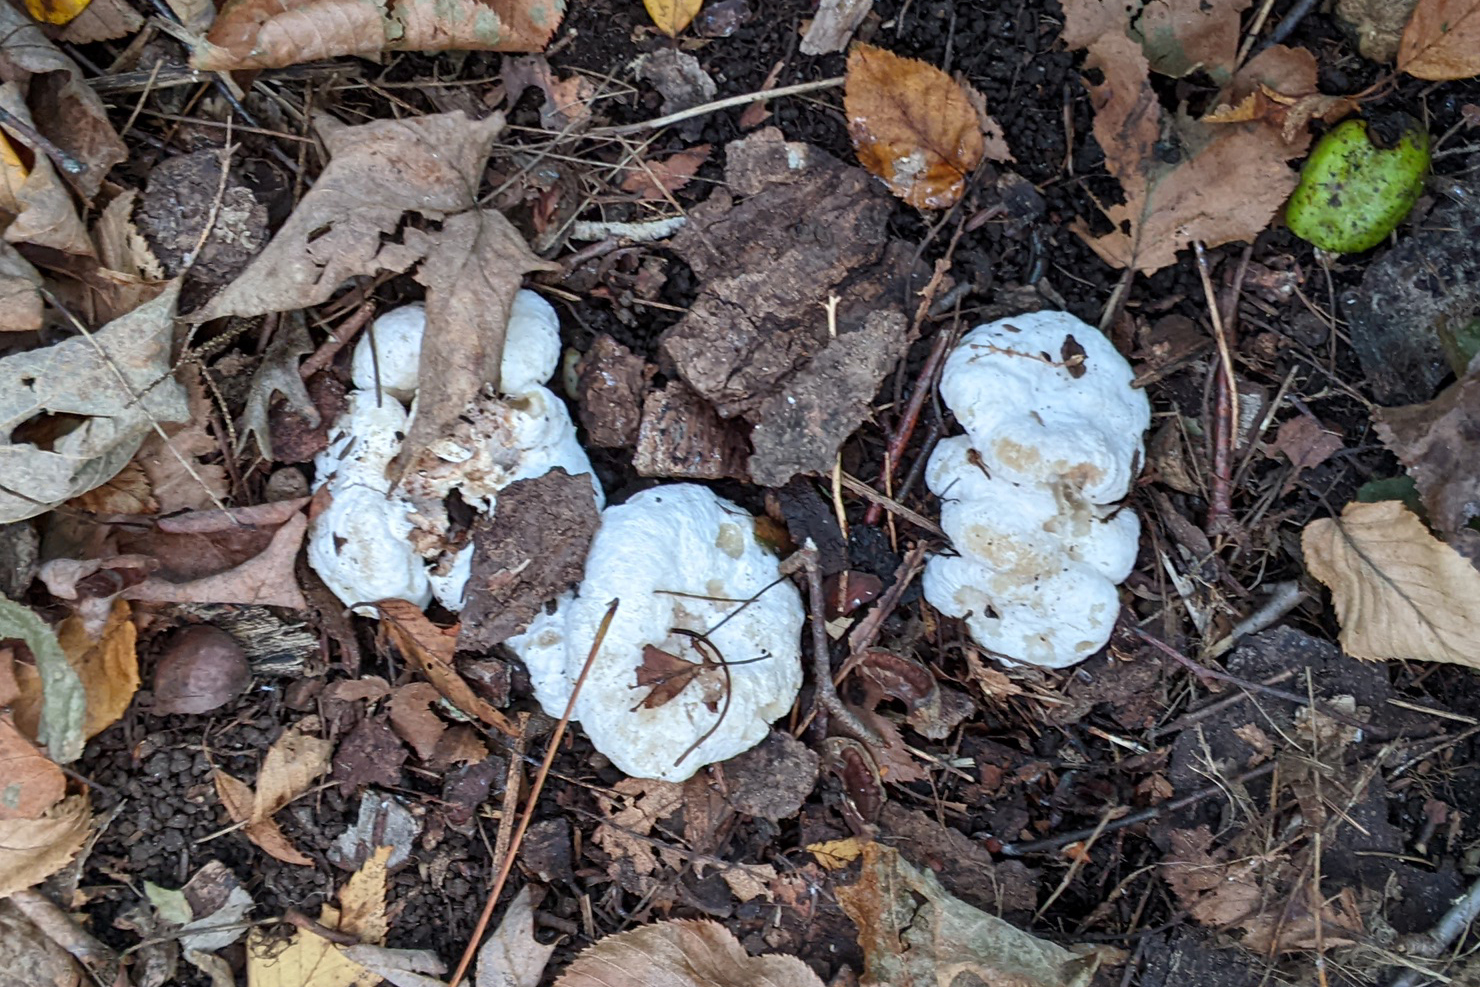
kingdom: Fungi
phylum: Basidiomycota
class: Agaricomycetes
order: Agaricales
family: Entolomataceae
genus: Entoloma
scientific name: Entoloma abortivum
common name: Aborted entoloma
